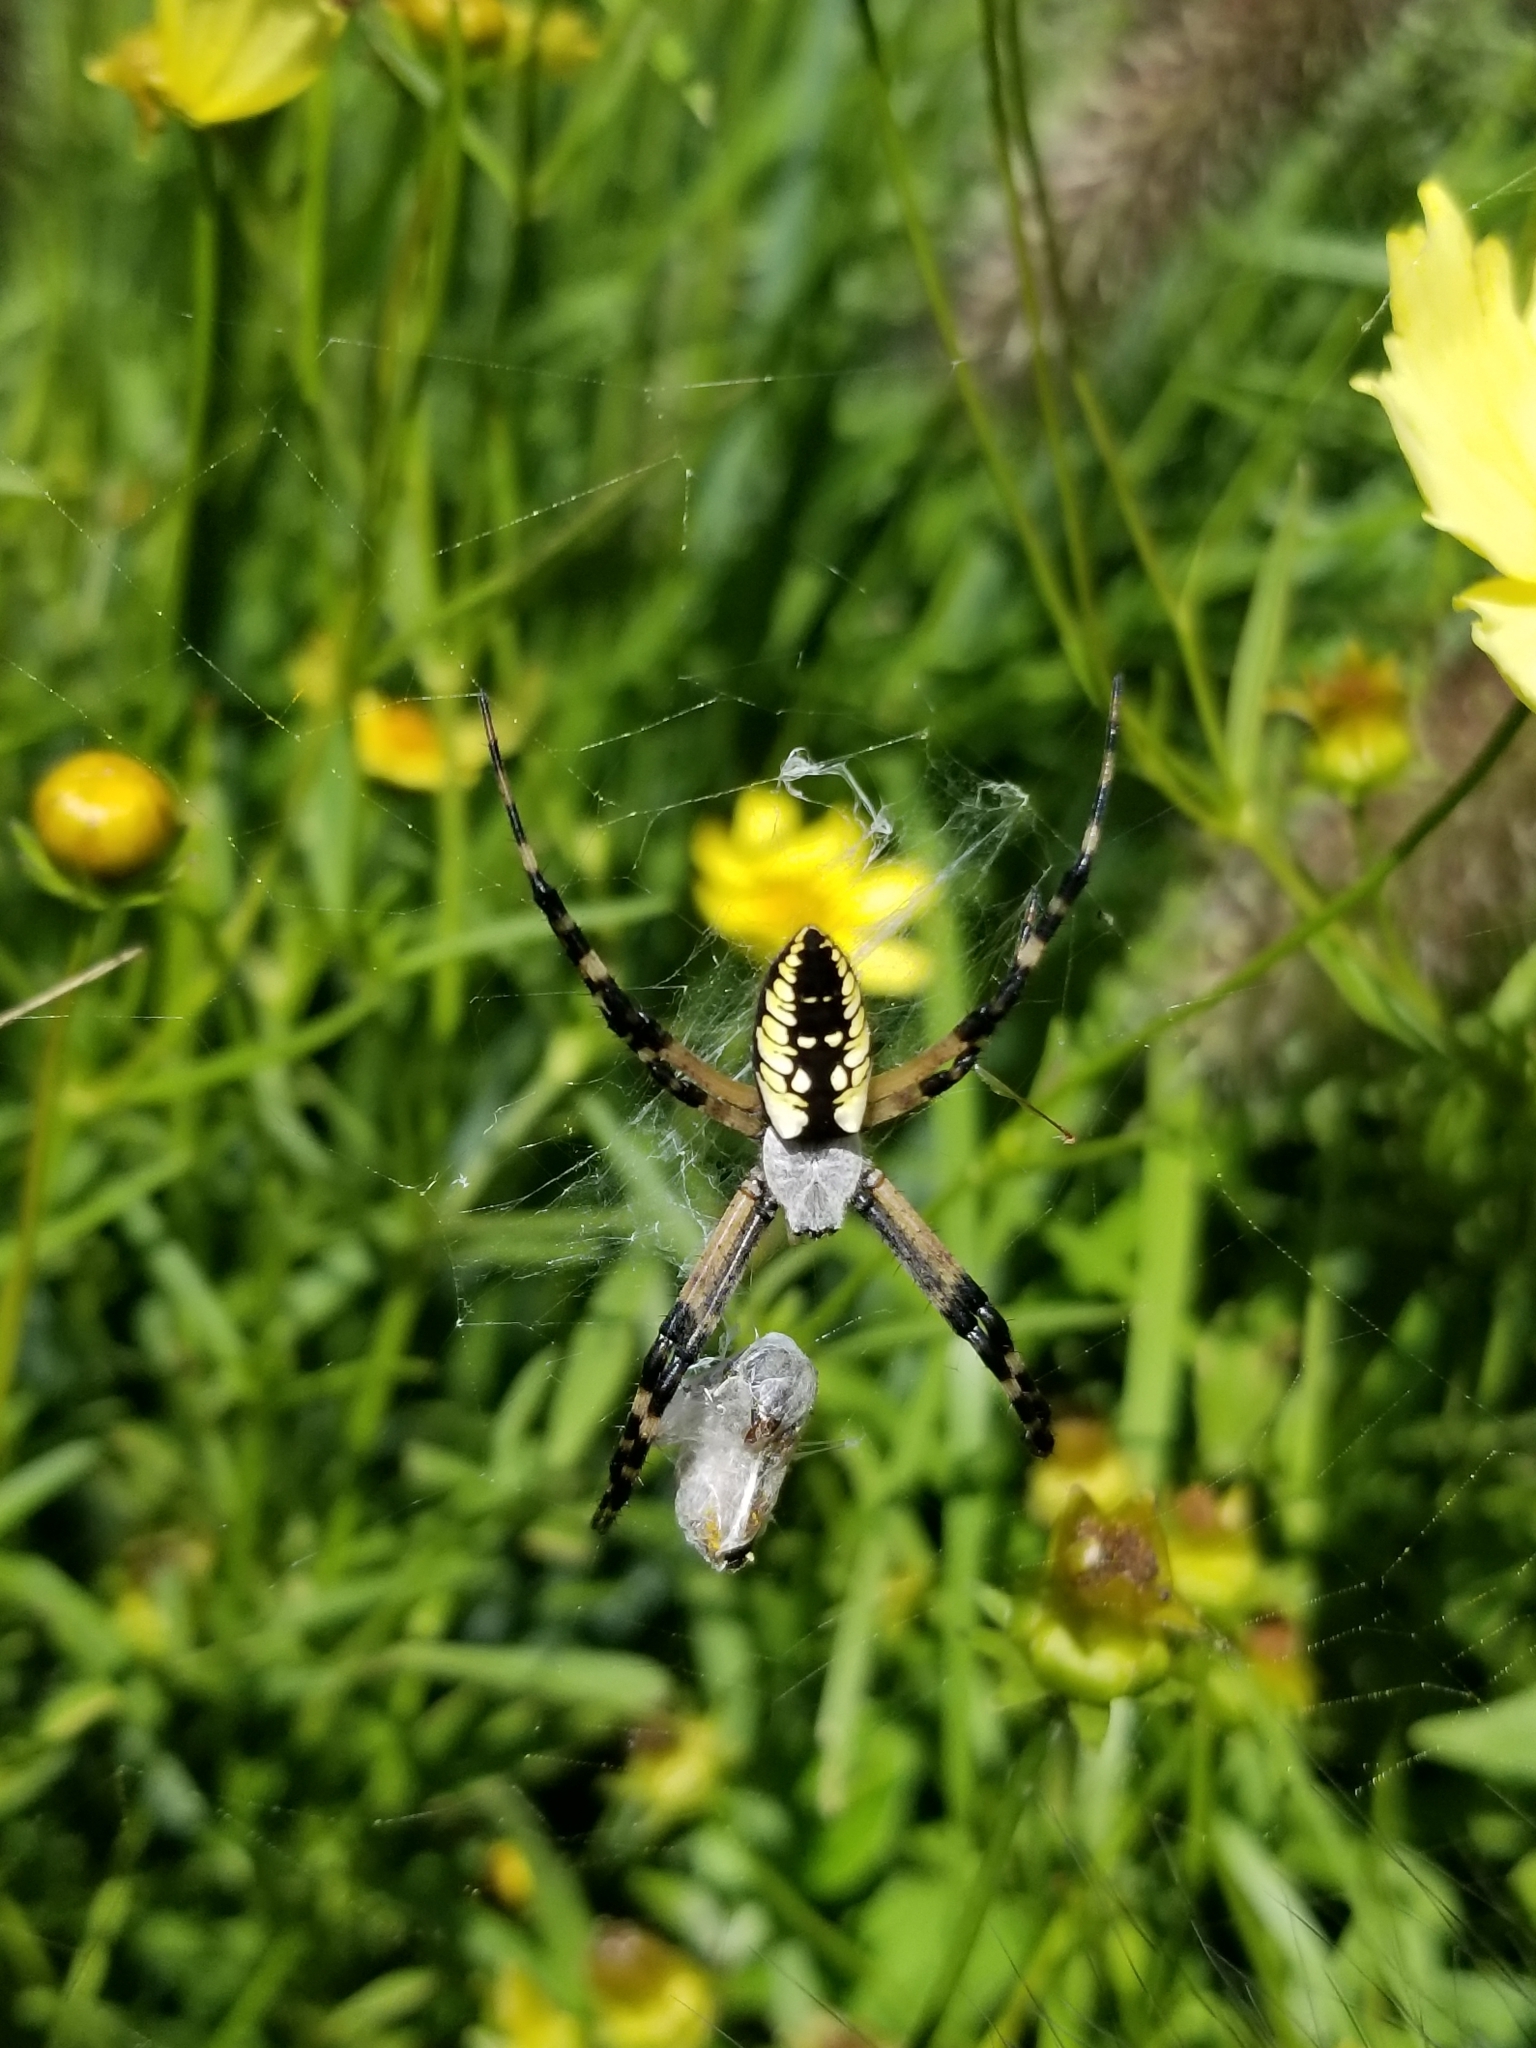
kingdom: Animalia
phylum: Arthropoda
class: Arachnida
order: Araneae
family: Araneidae
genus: Argiope
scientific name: Argiope aurantia
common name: Orb weavers
